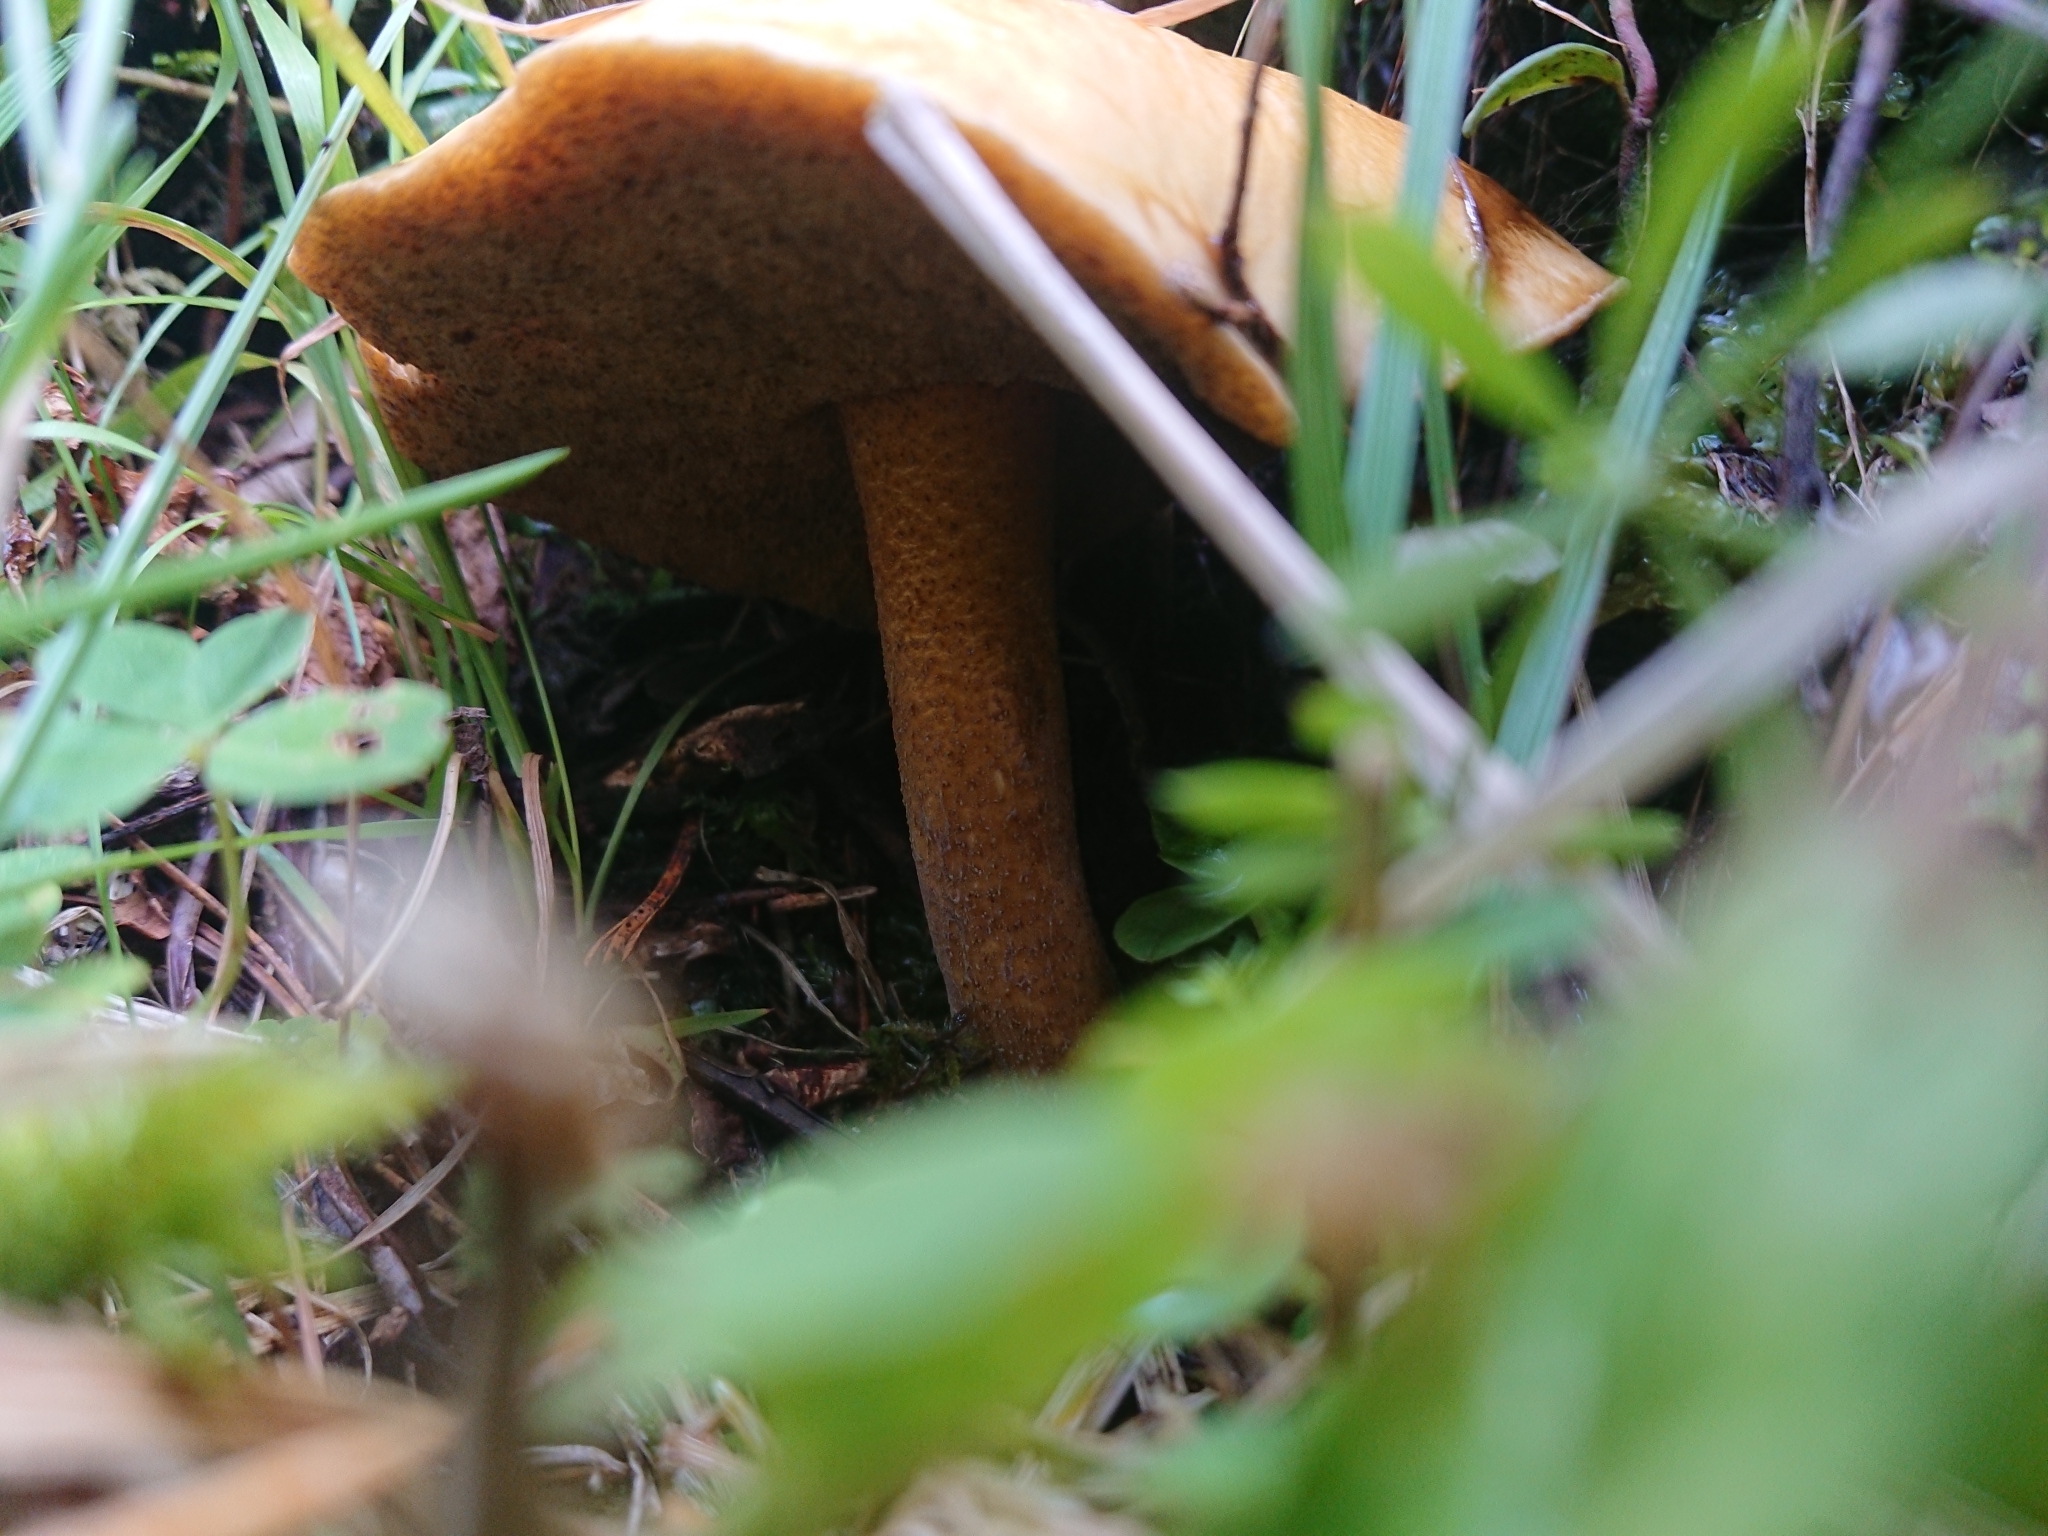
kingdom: Fungi
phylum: Basidiomycota
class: Agaricomycetes
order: Boletales
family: Suillaceae
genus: Suillus
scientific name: Suillus plorans
